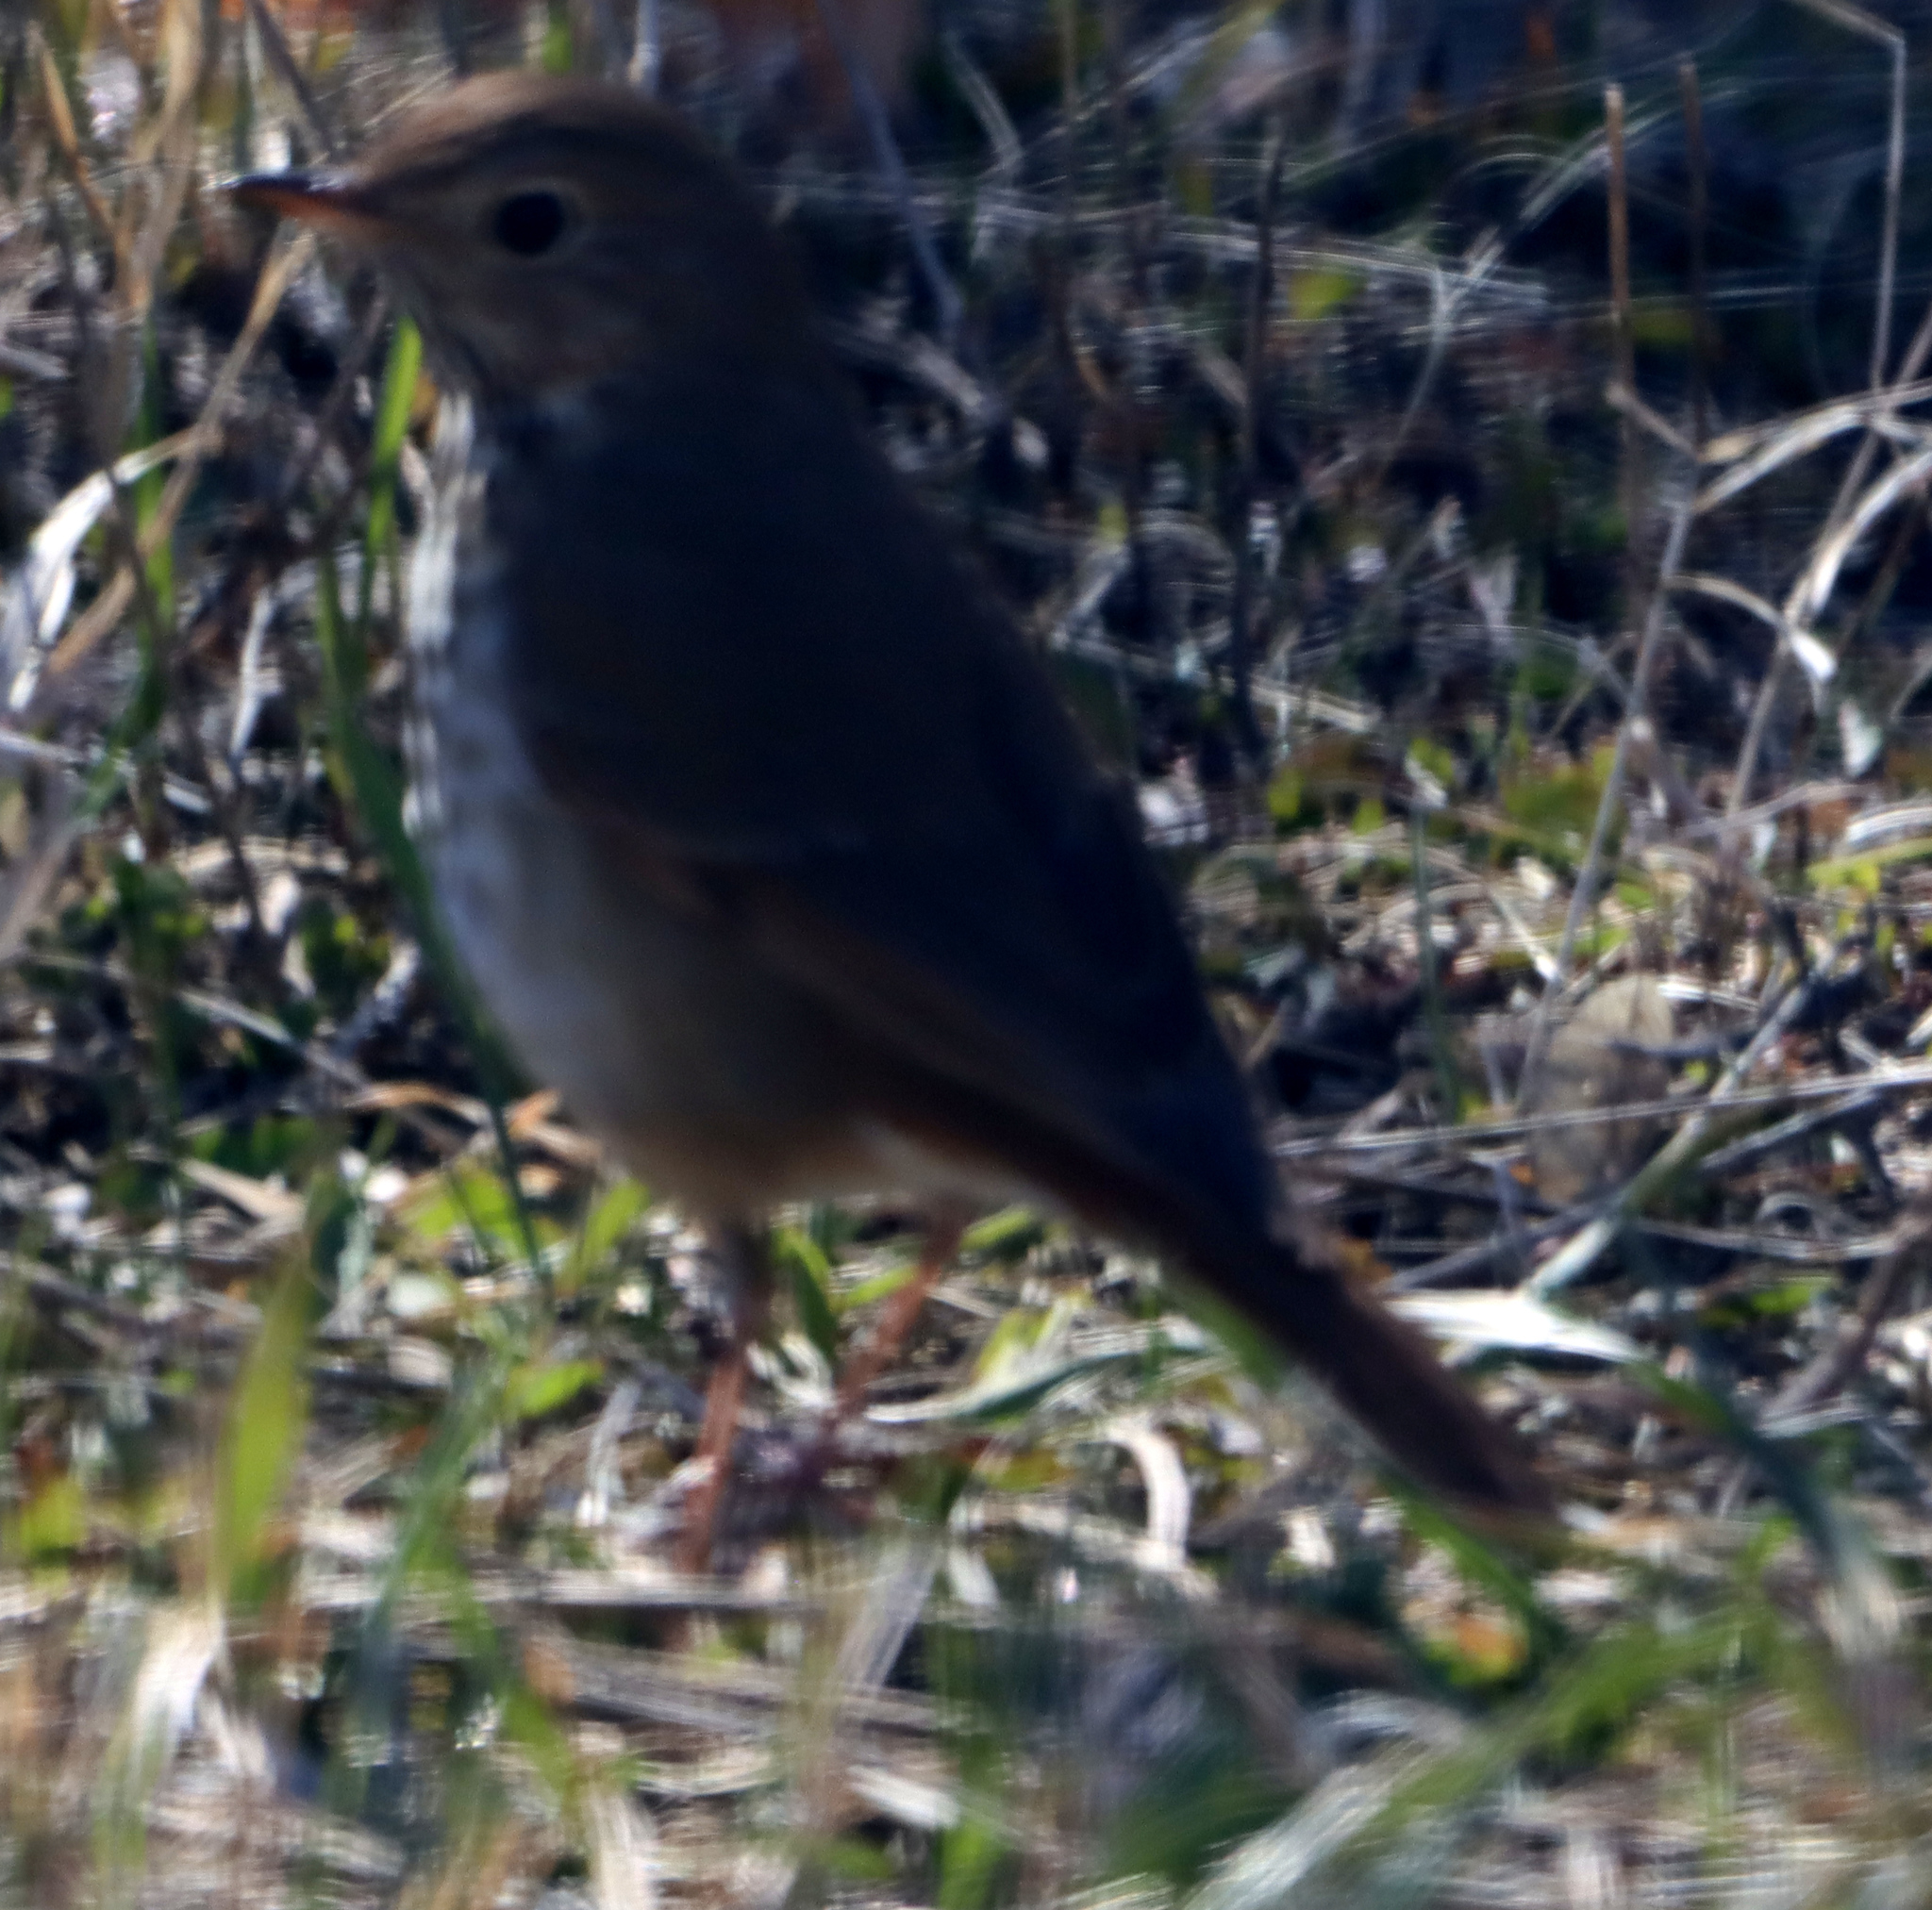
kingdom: Animalia
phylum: Chordata
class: Aves
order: Passeriformes
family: Turdidae
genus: Catharus
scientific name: Catharus guttatus
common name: Hermit thrush
